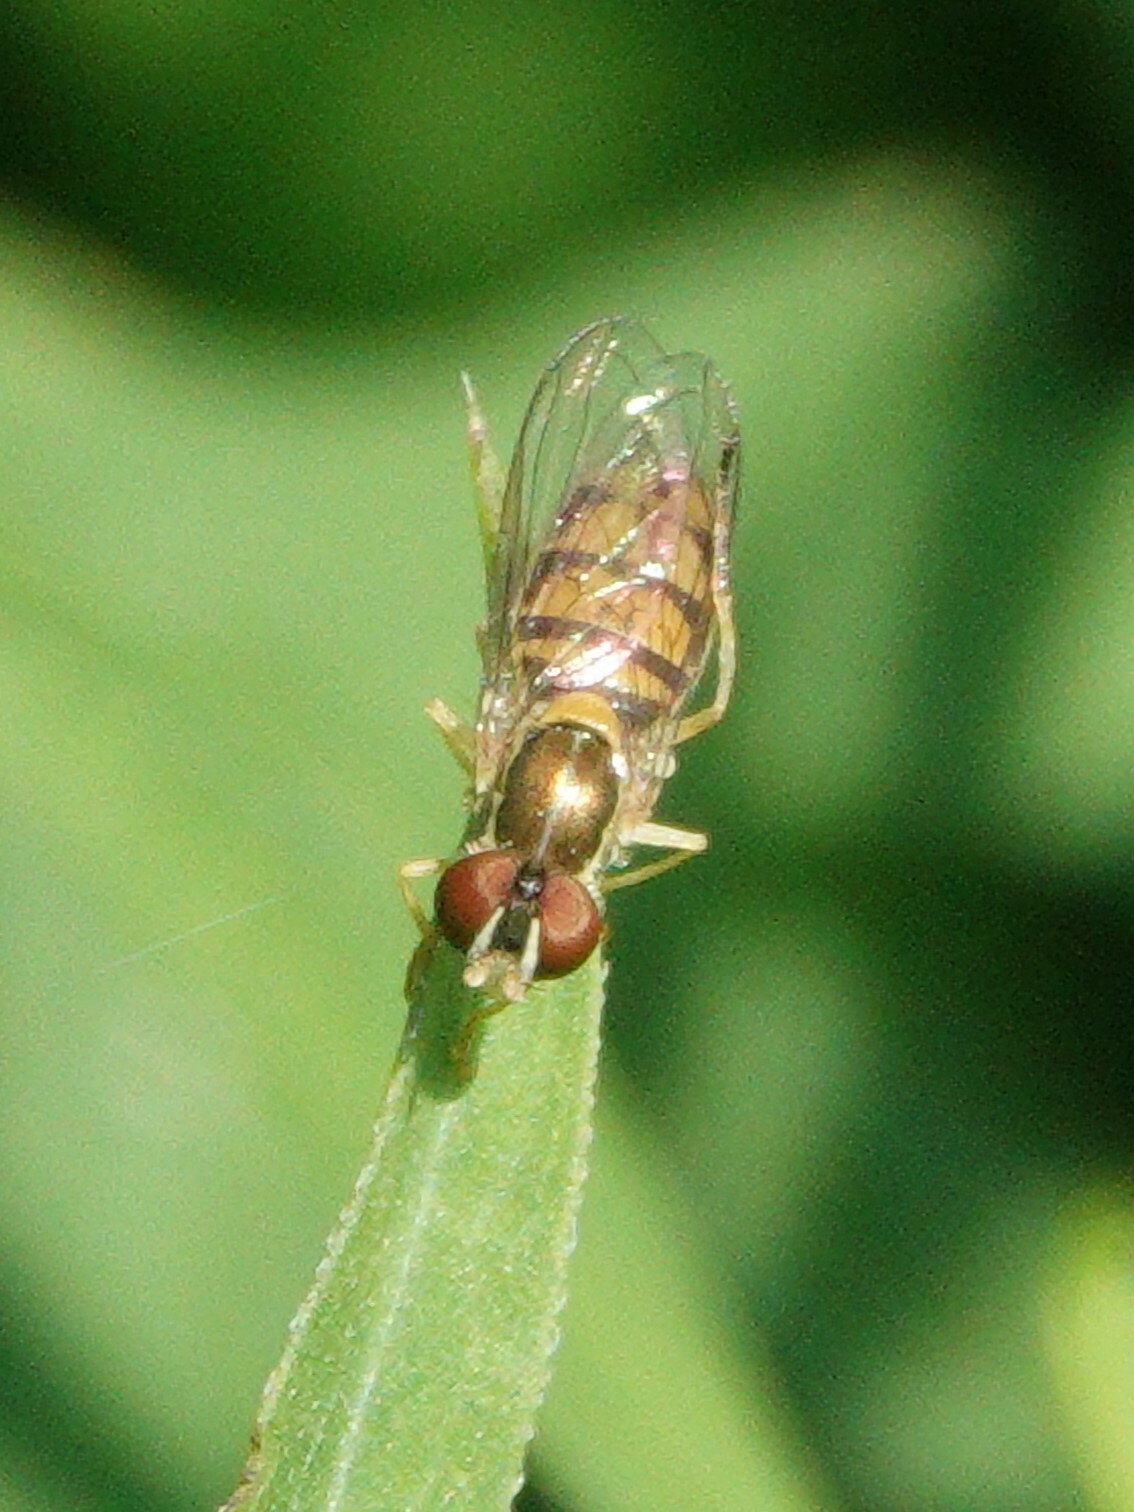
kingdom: Animalia
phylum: Arthropoda
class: Insecta
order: Diptera
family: Syrphidae
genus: Toxomerus
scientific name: Toxomerus marginatus
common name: Syrphid fly
